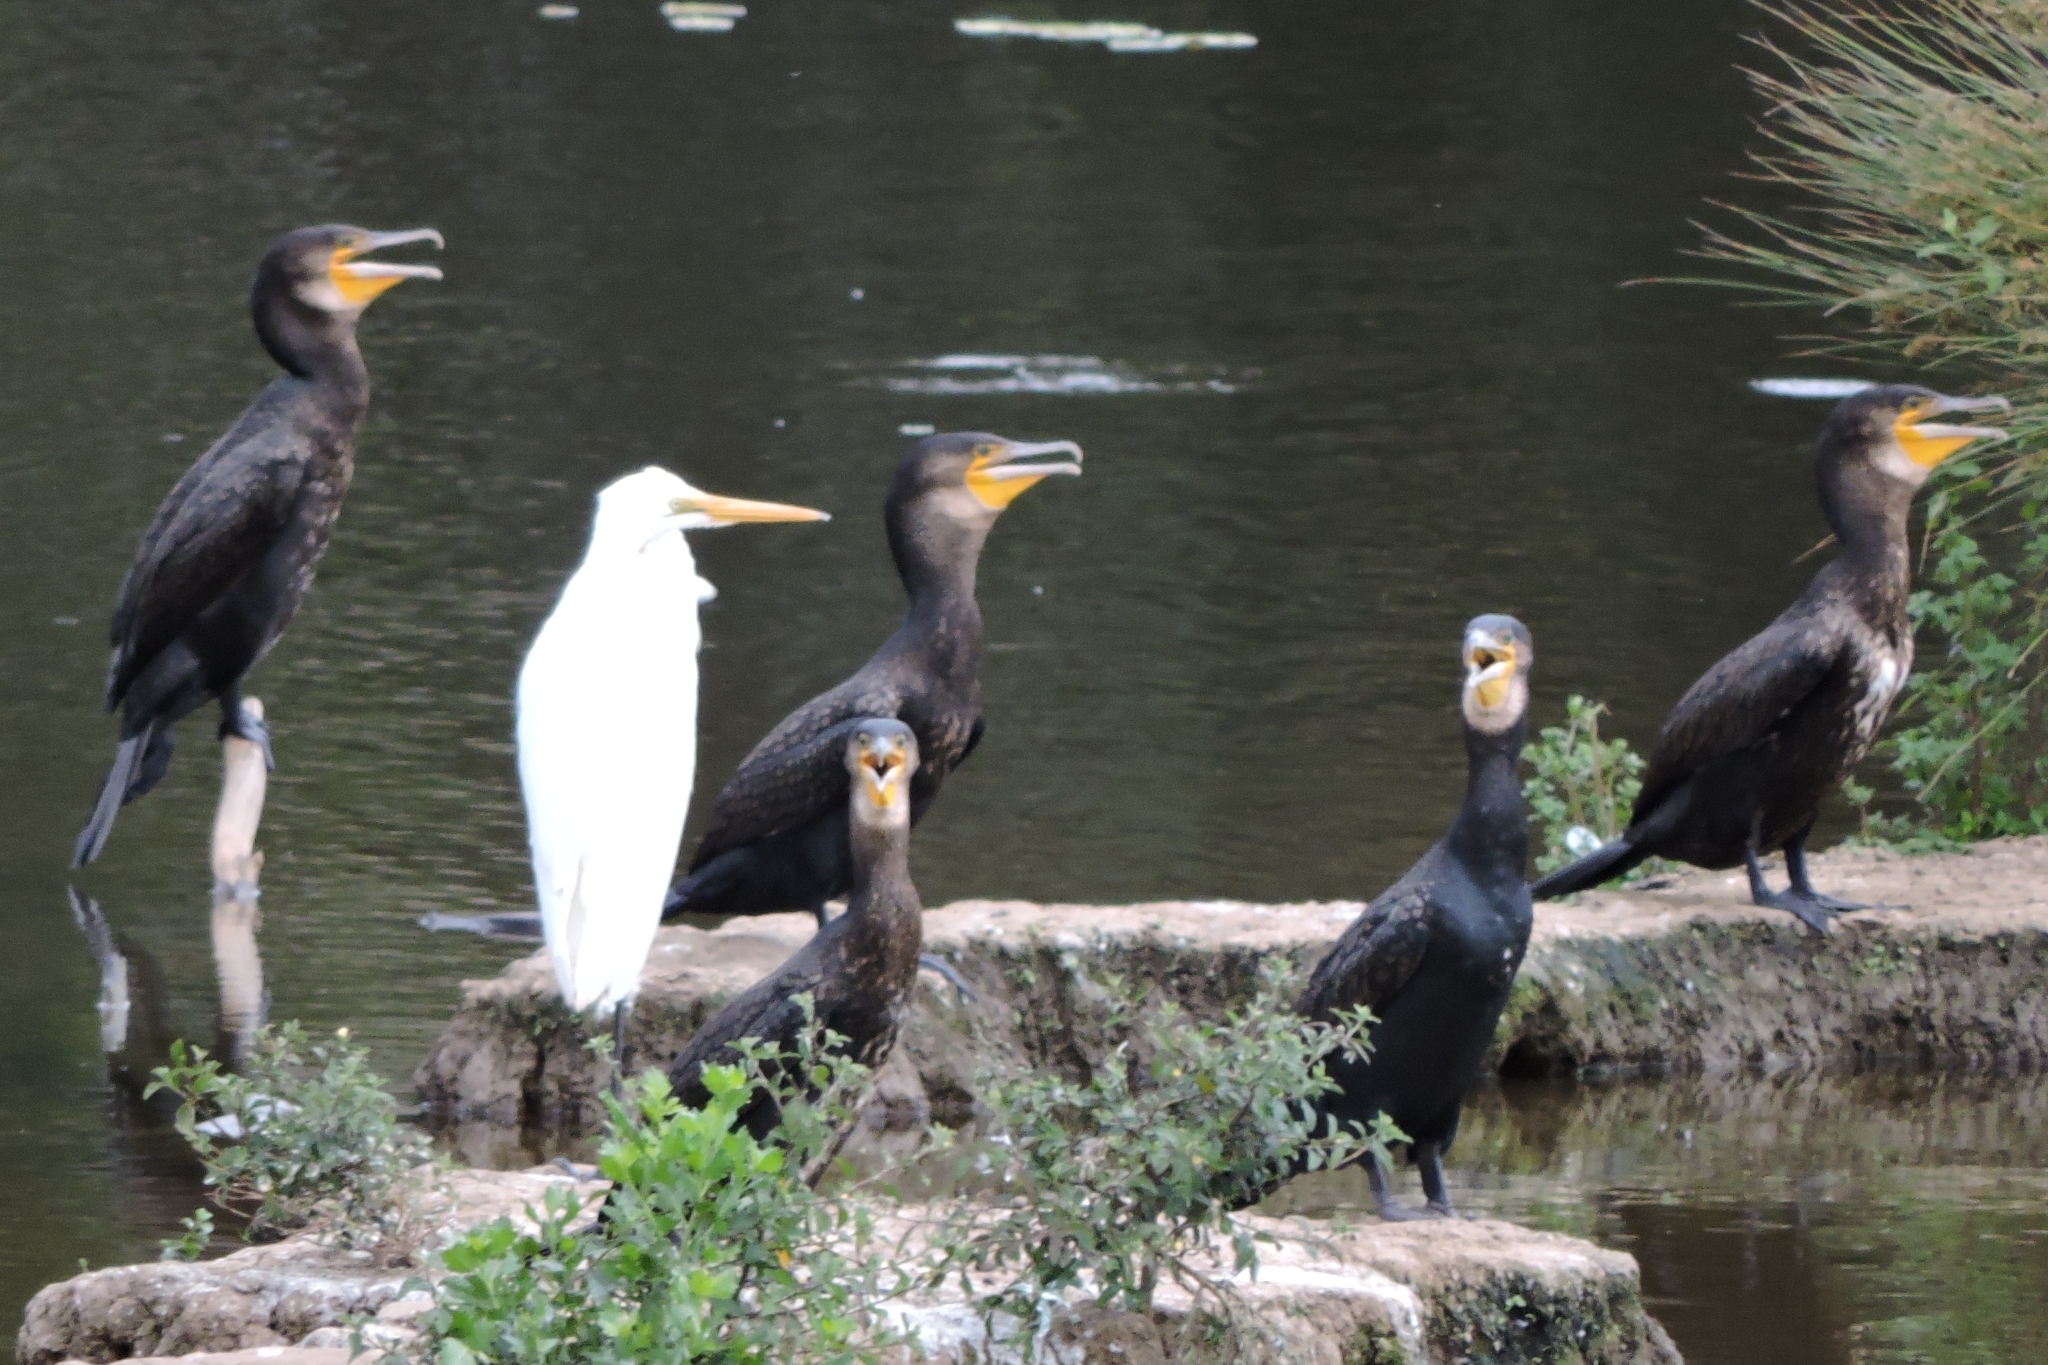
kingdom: Animalia
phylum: Chordata
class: Aves
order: Suliformes
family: Phalacrocoracidae
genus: Phalacrocorax
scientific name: Phalacrocorax carbo
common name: Great cormorant
